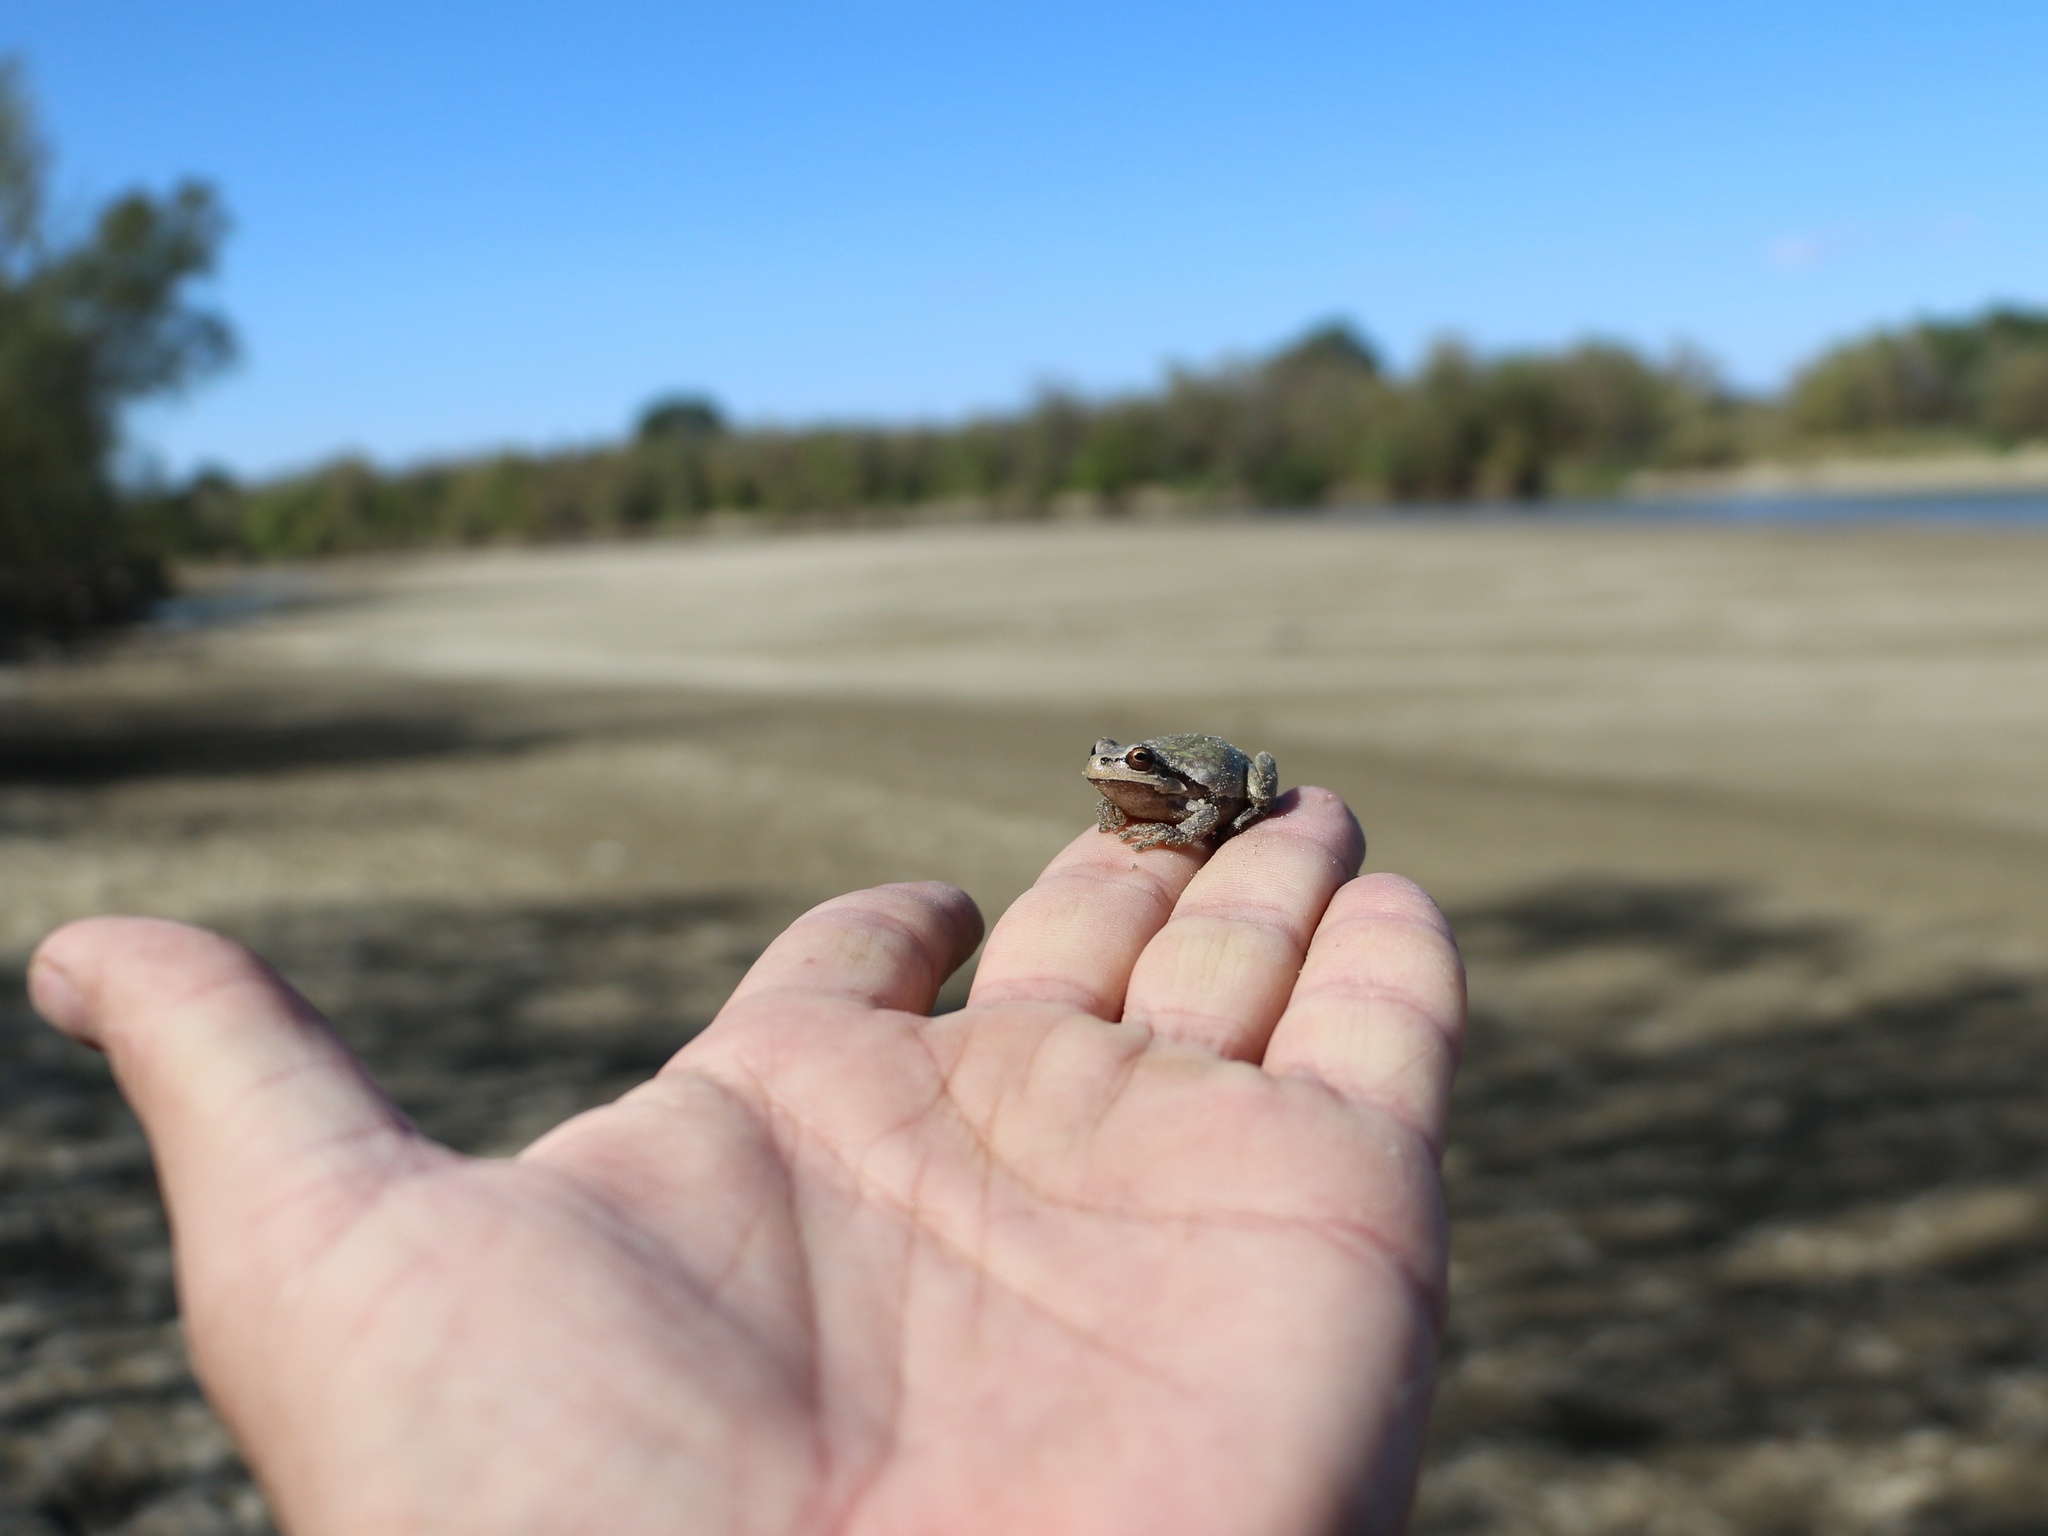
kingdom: Animalia
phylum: Chordata
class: Amphibia
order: Anura
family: Hylidae
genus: Hyla
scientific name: Hyla orientalis
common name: Caucasian treefrog
